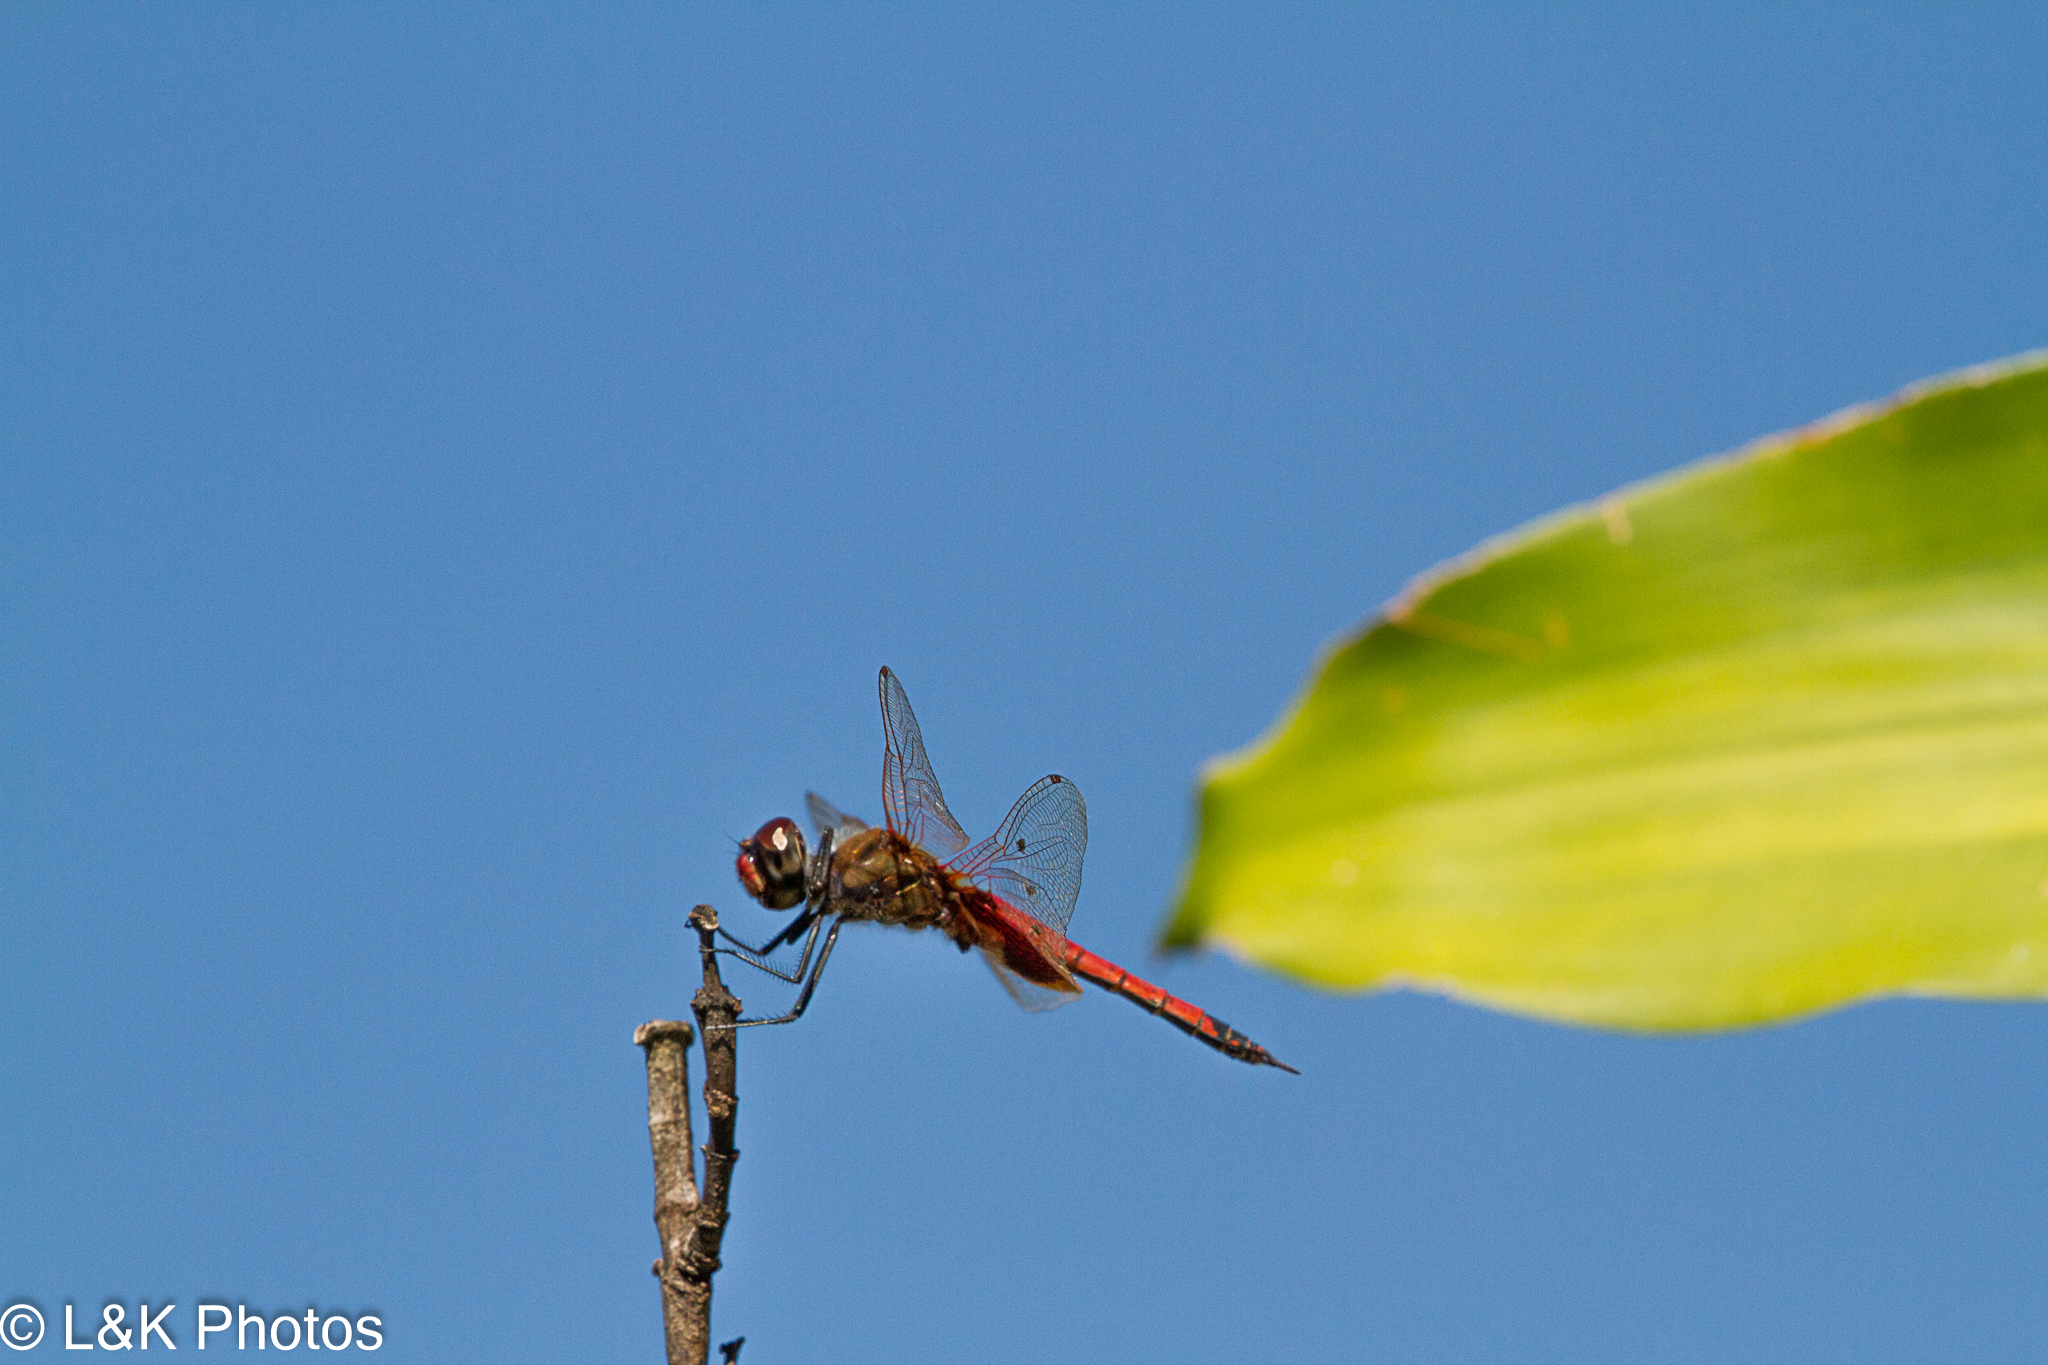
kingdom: Animalia
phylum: Arthropoda
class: Insecta
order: Odonata
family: Libellulidae
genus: Tramea
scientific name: Tramea loewii
